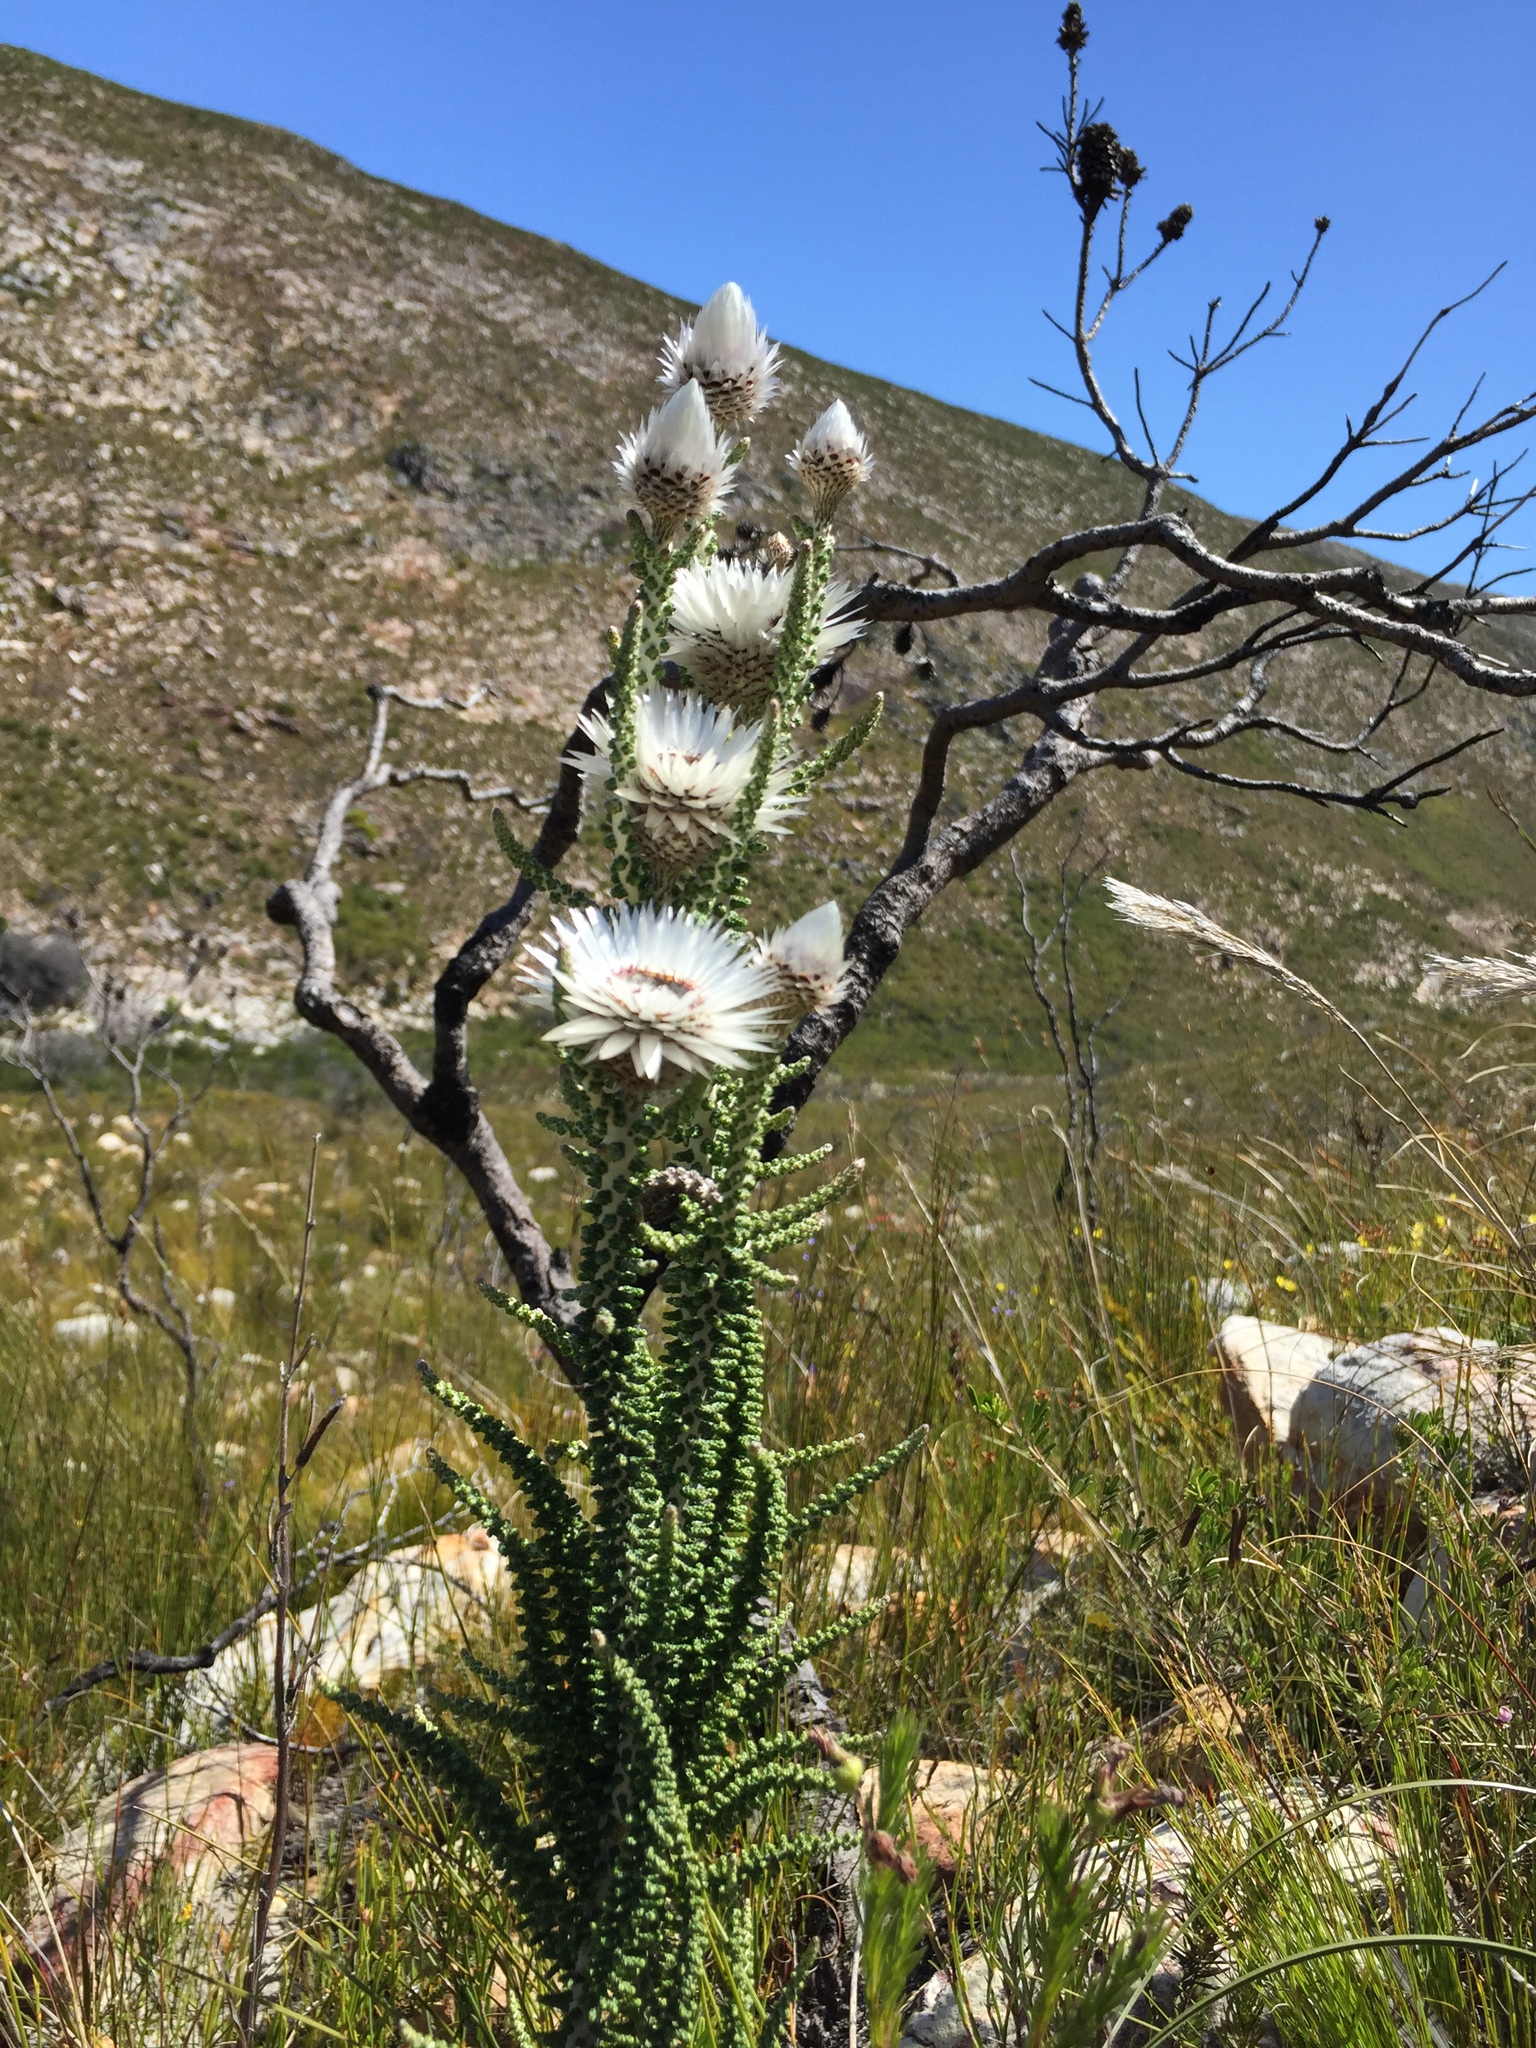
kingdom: Plantae
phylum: Tracheophyta
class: Magnoliopsida
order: Asterales
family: Asteraceae
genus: Phaenocoma
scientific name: Phaenocoma prolifera
